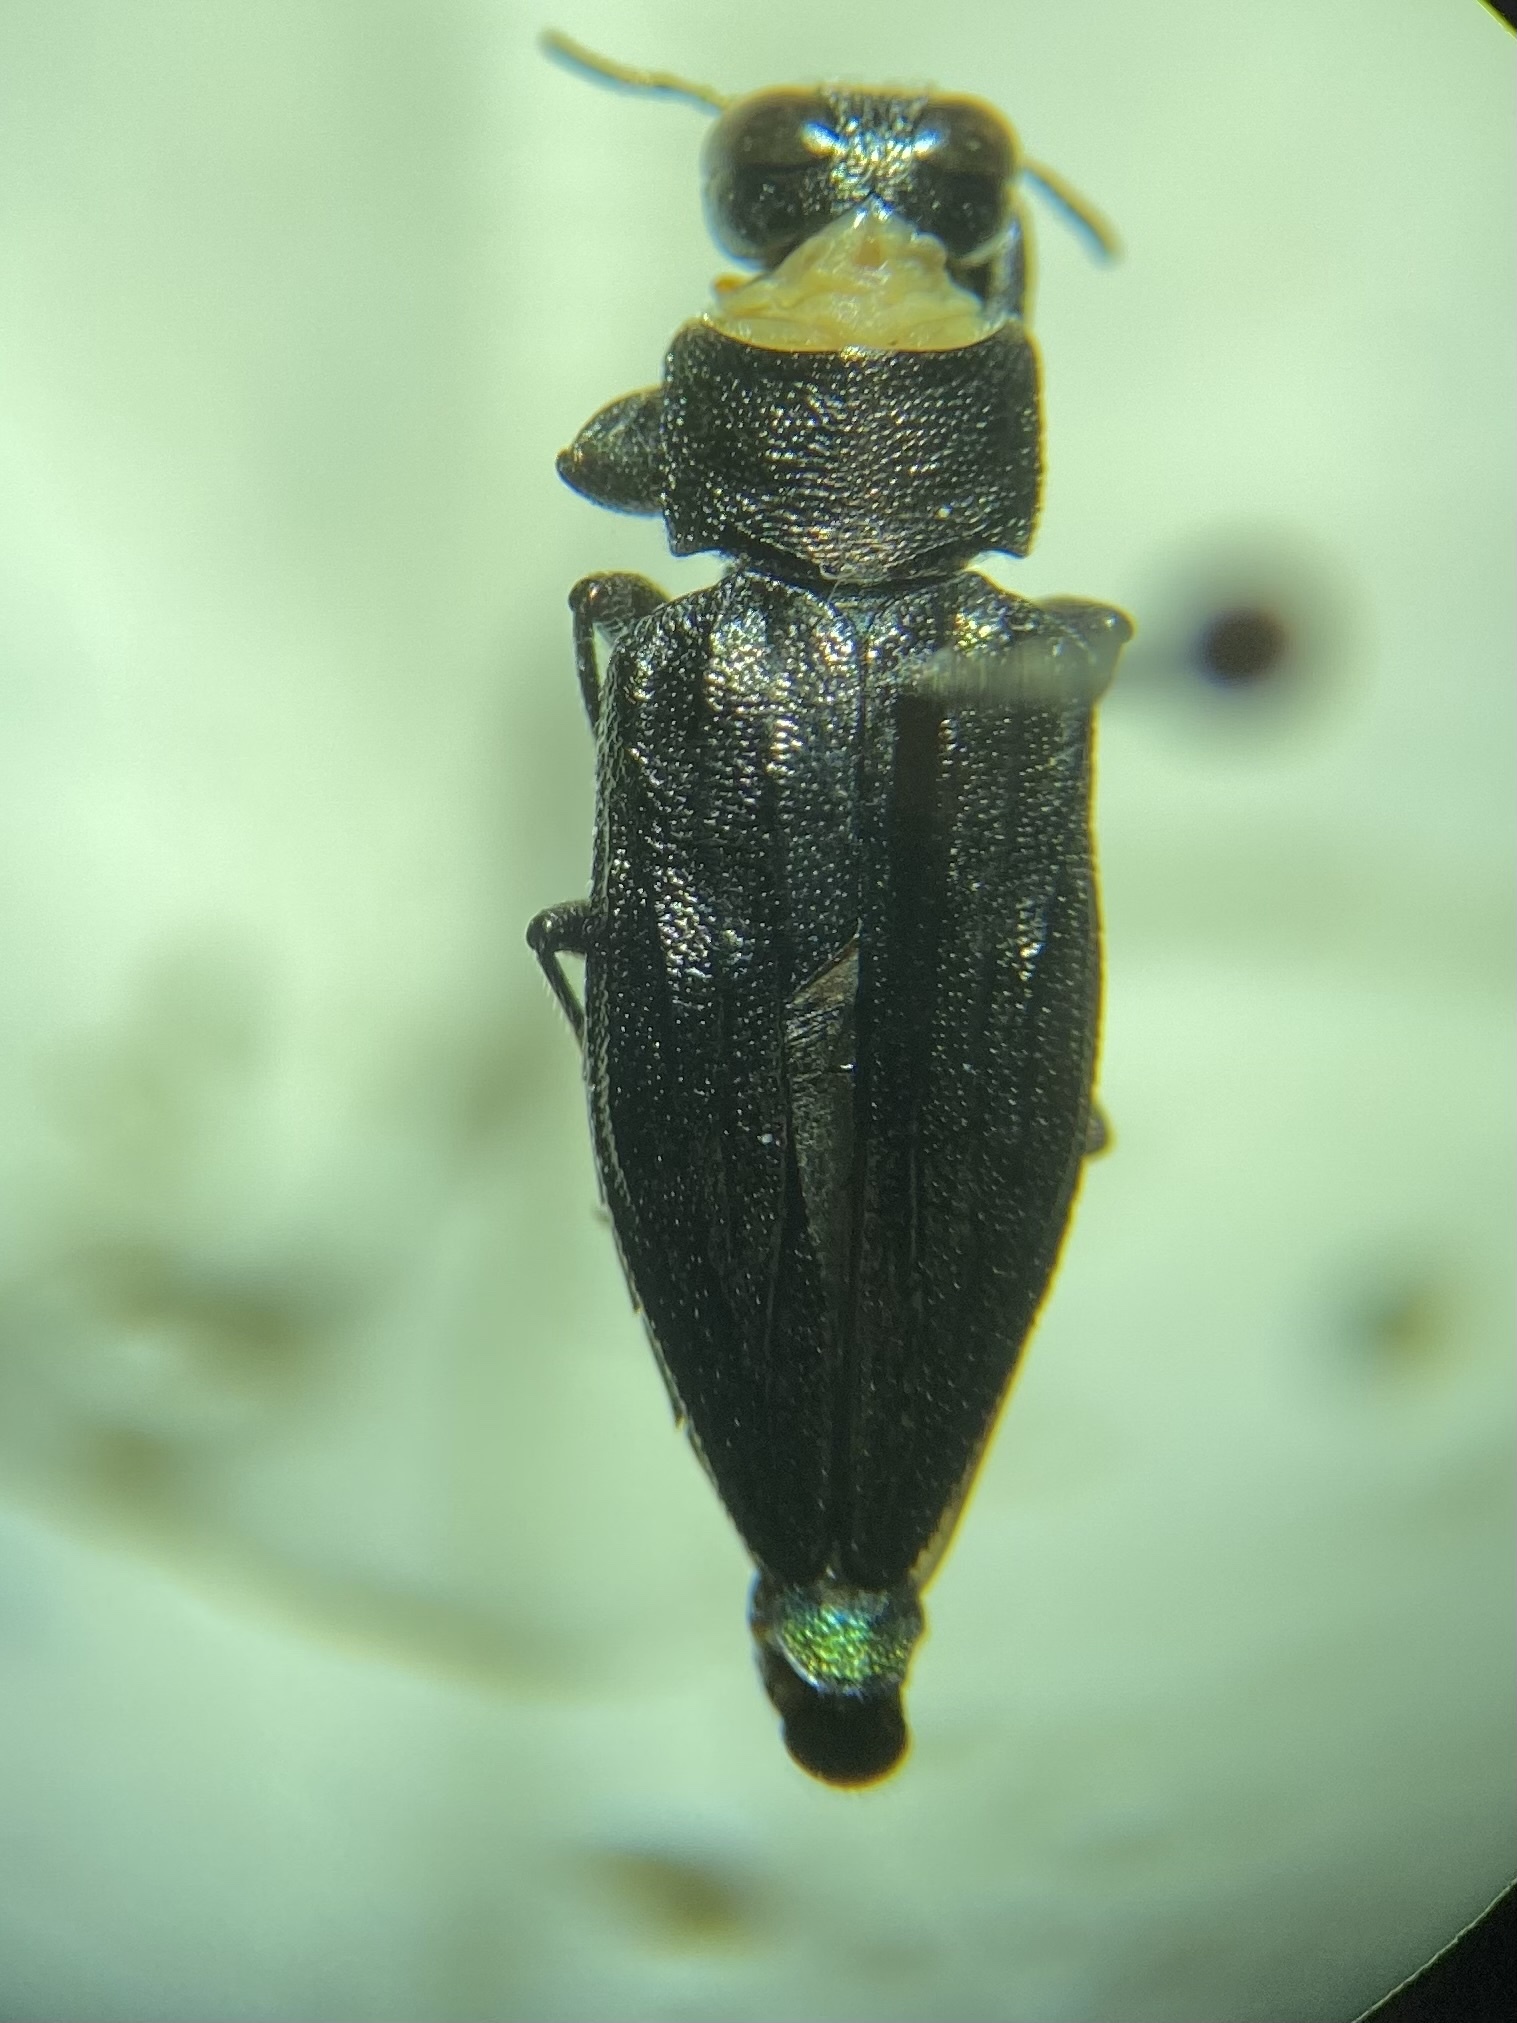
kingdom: Animalia
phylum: Arthropoda
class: Insecta
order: Coleoptera
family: Buprestidae
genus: Chrysobothris
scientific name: Chrysobothris sexsignata
